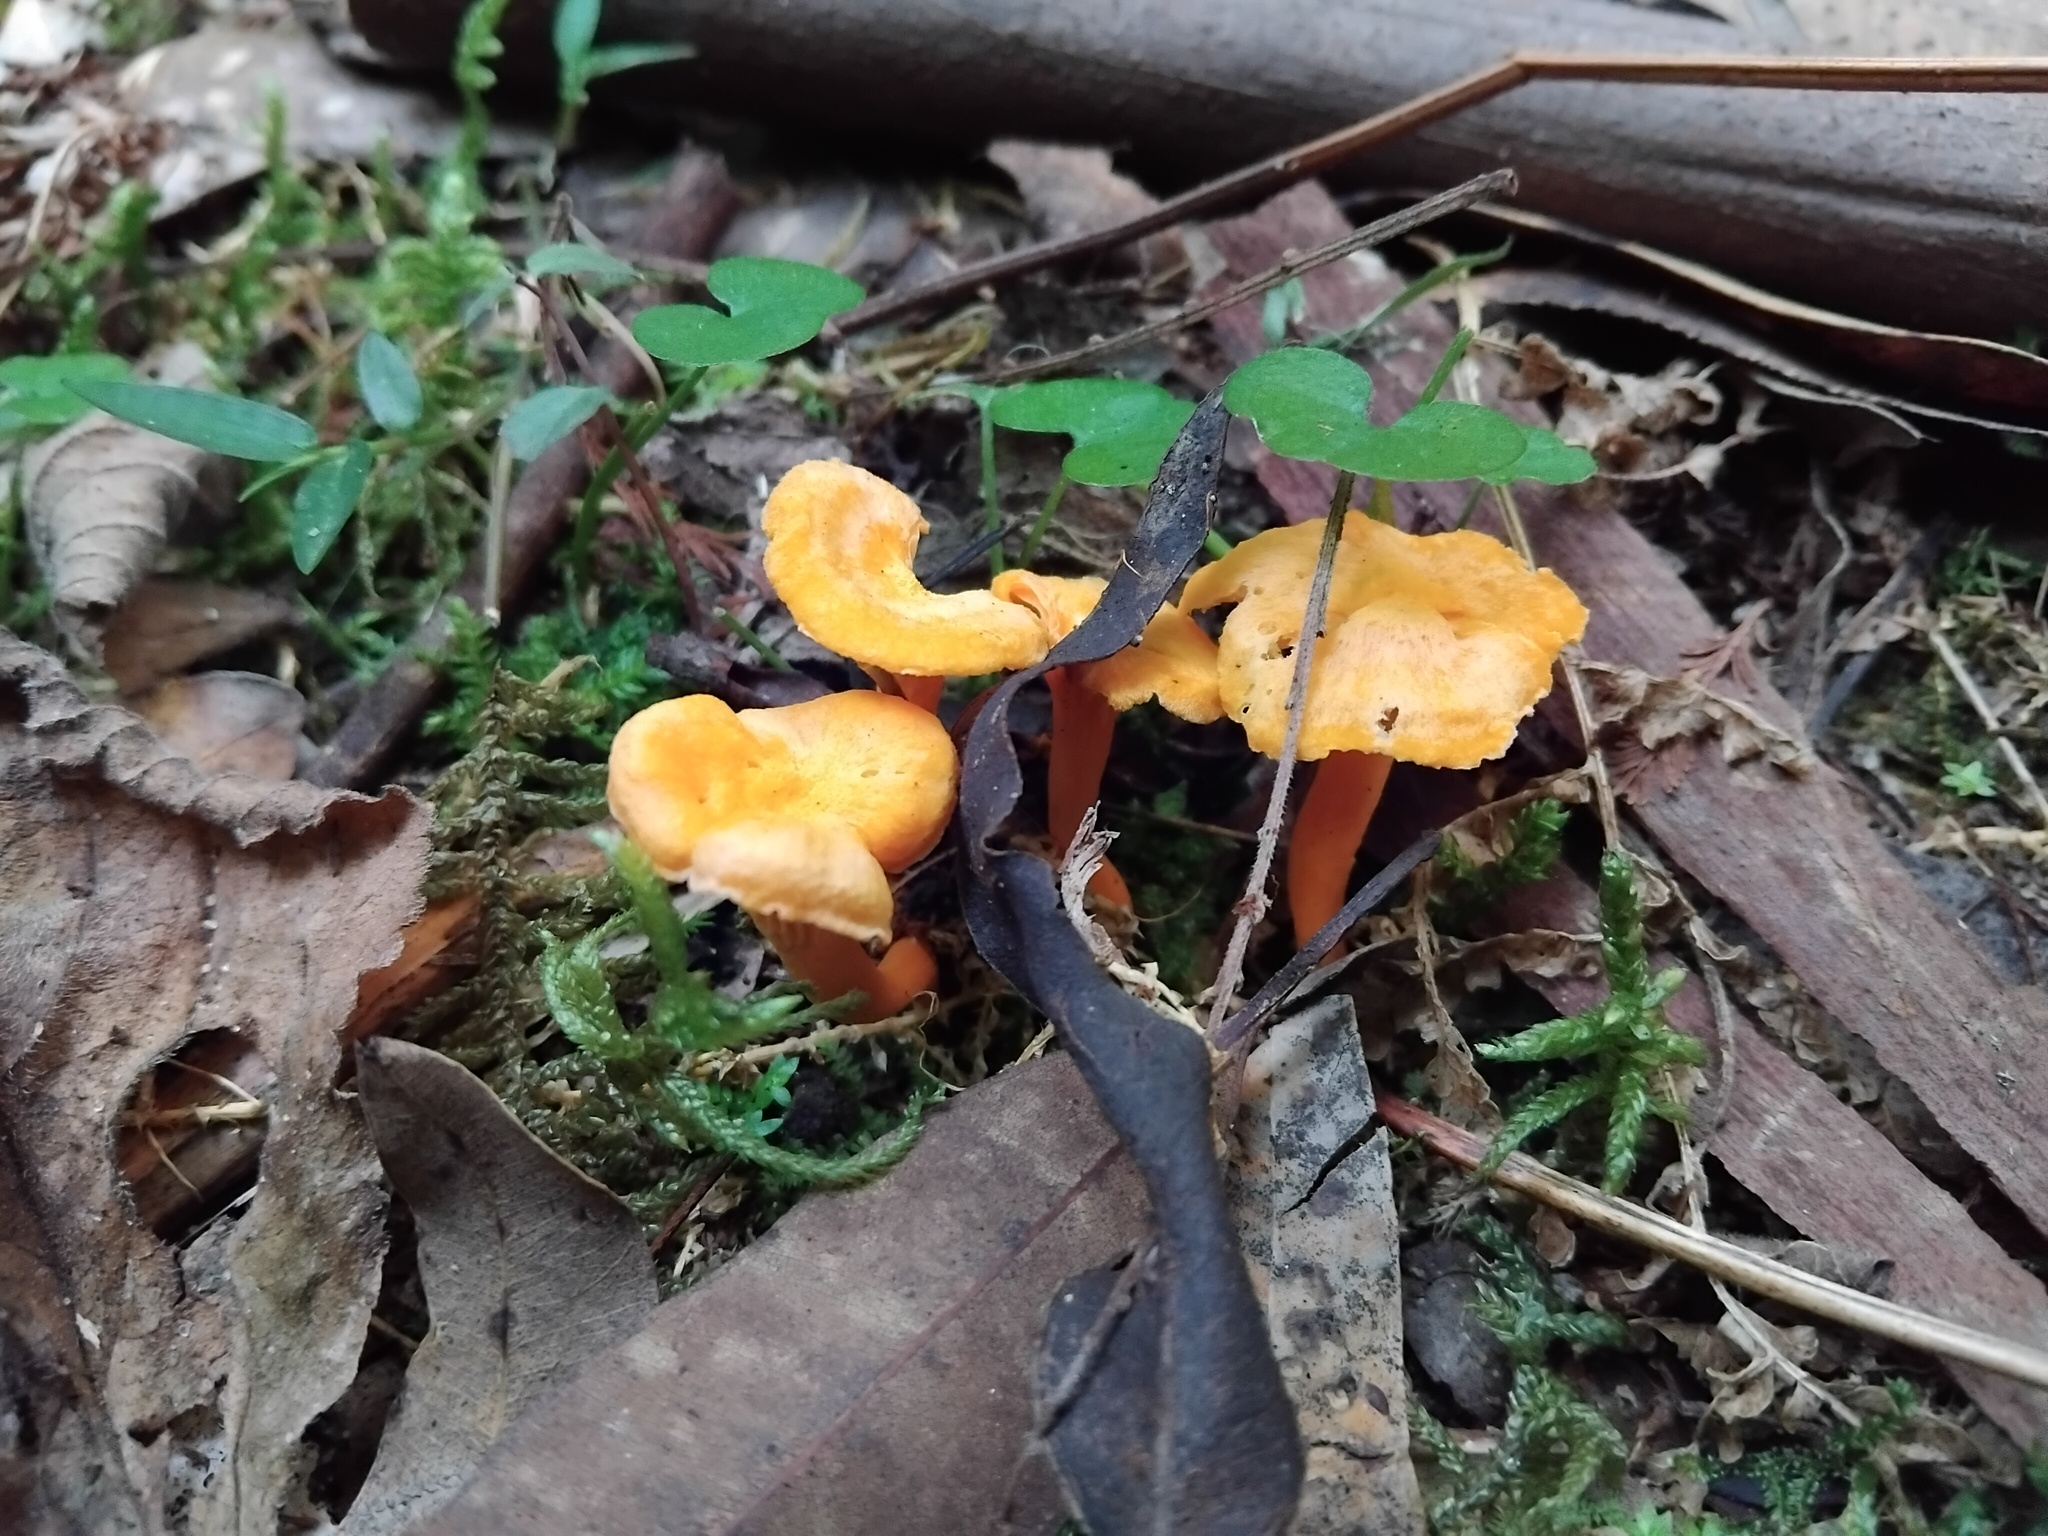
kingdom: Fungi
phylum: Basidiomycota
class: Agaricomycetes
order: Cantharellales
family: Hydnaceae
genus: Cantharellus
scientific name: Cantharellus
